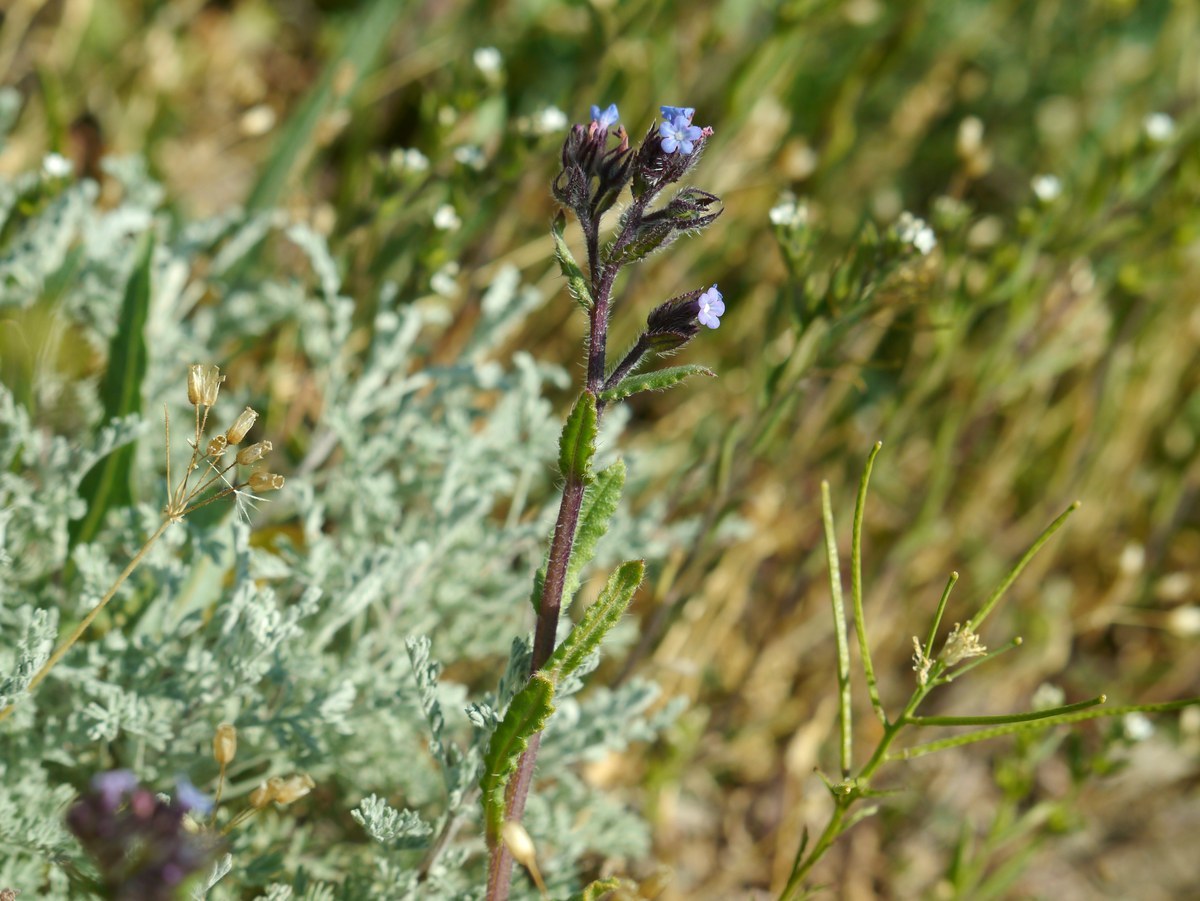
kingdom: Plantae
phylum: Tracheophyta
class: Magnoliopsida
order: Boraginales
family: Boraginaceae
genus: Lycopsis
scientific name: Lycopsis arvensis
